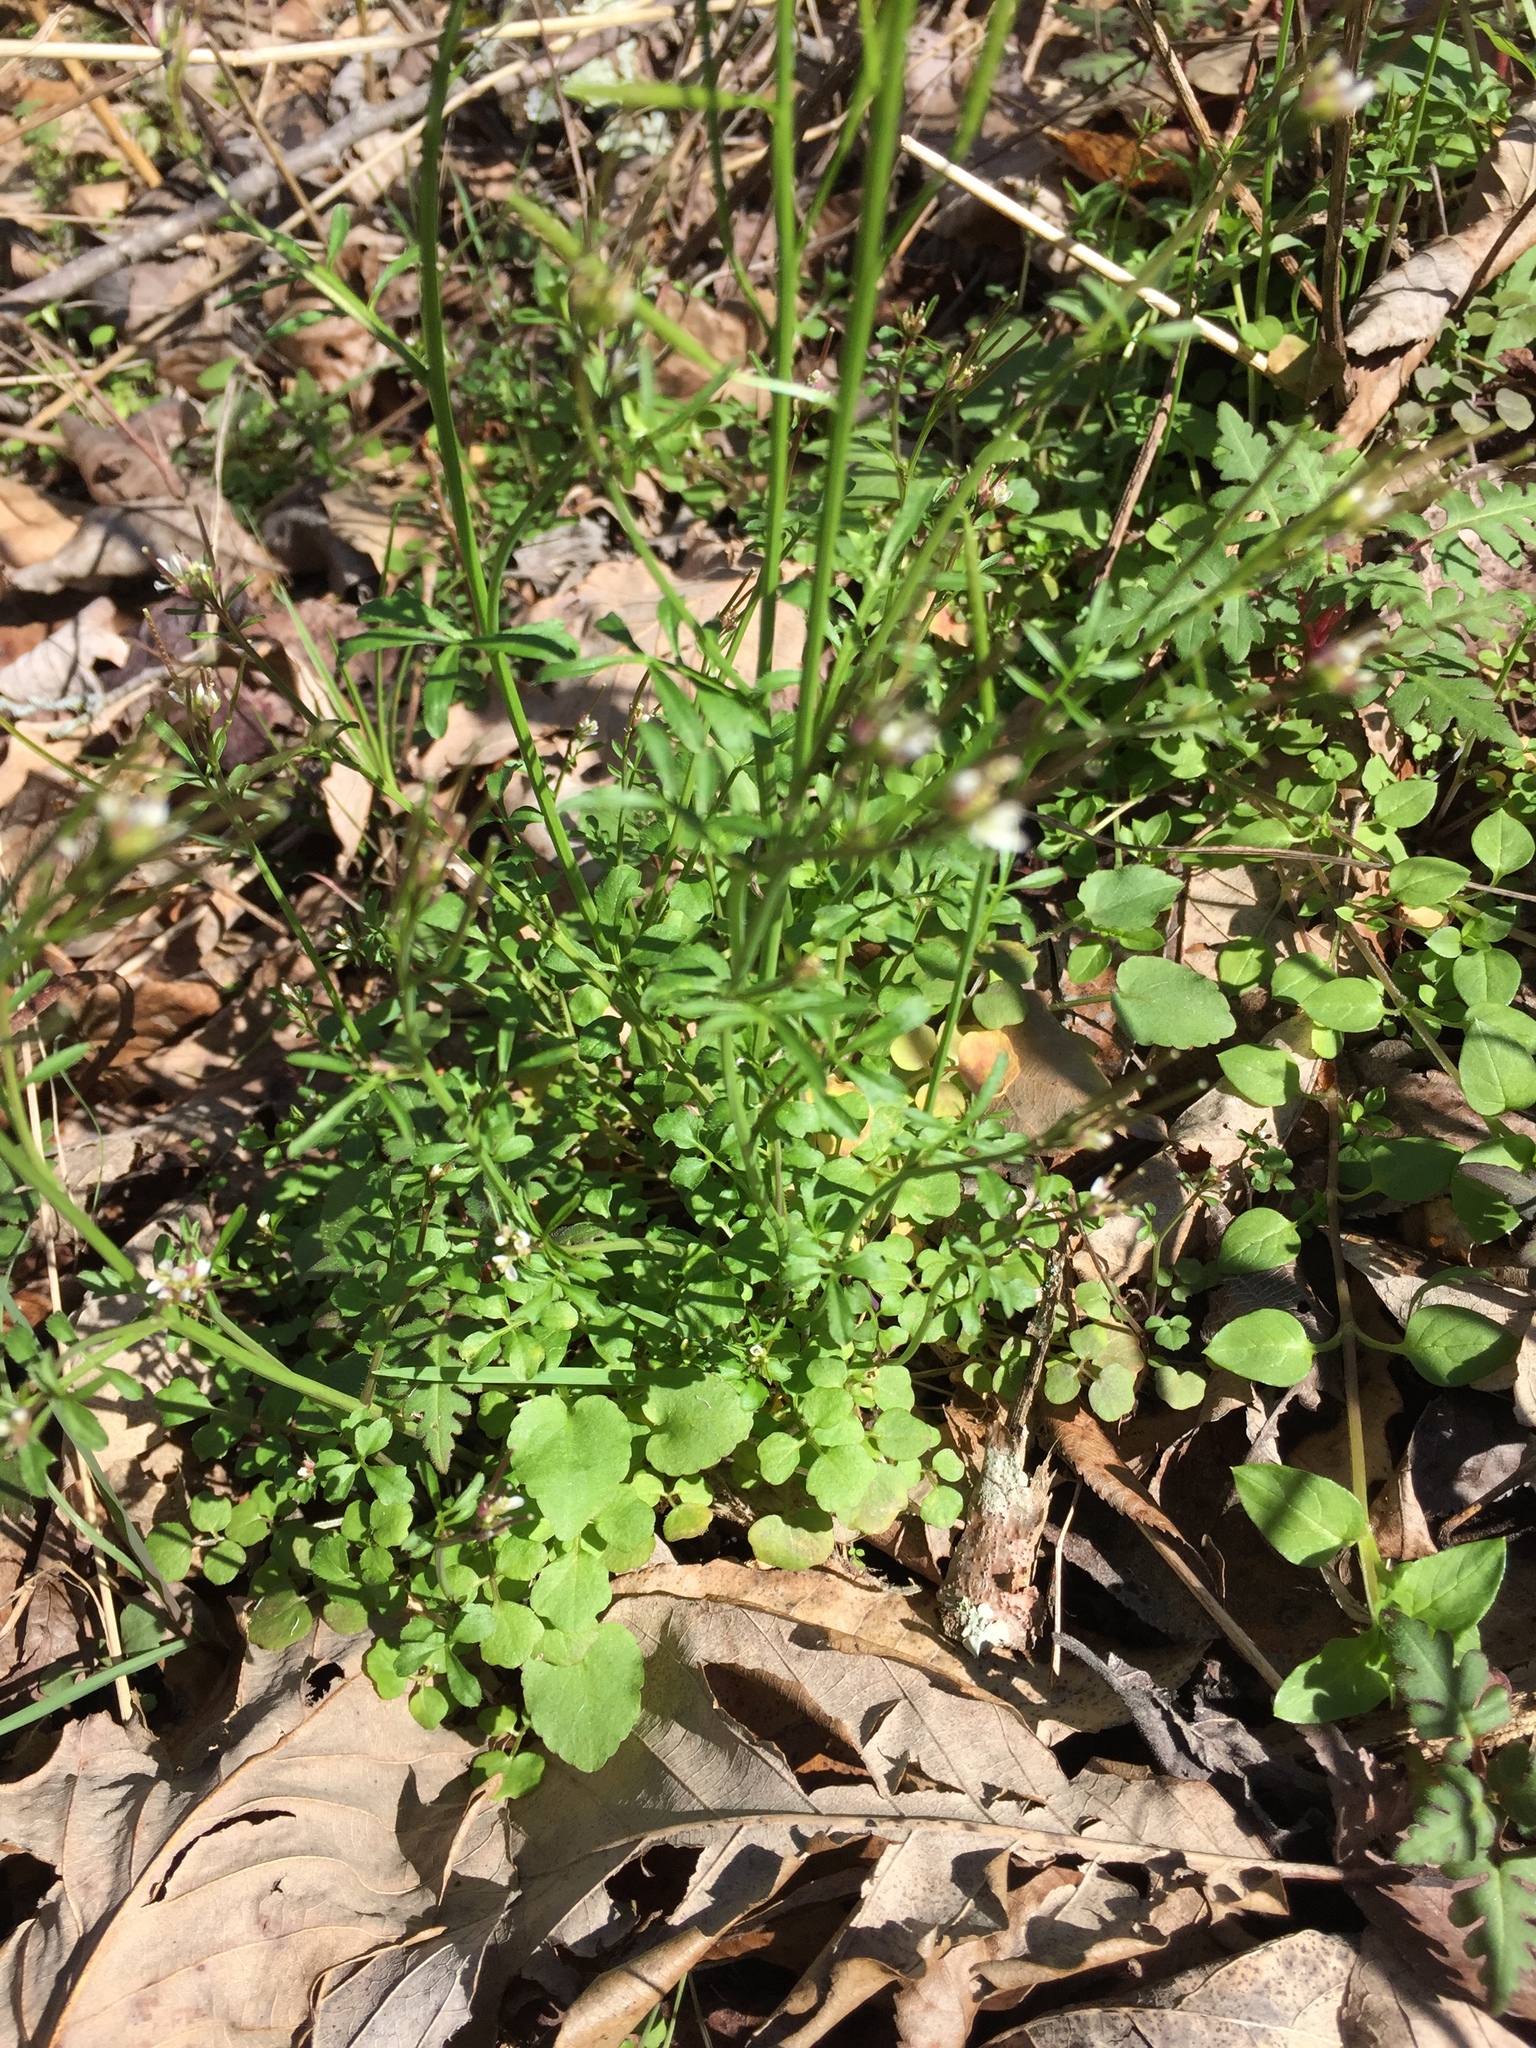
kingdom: Plantae
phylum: Tracheophyta
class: Magnoliopsida
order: Brassicales
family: Brassicaceae
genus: Cardamine
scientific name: Cardamine hirsuta
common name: Hairy bittercress
